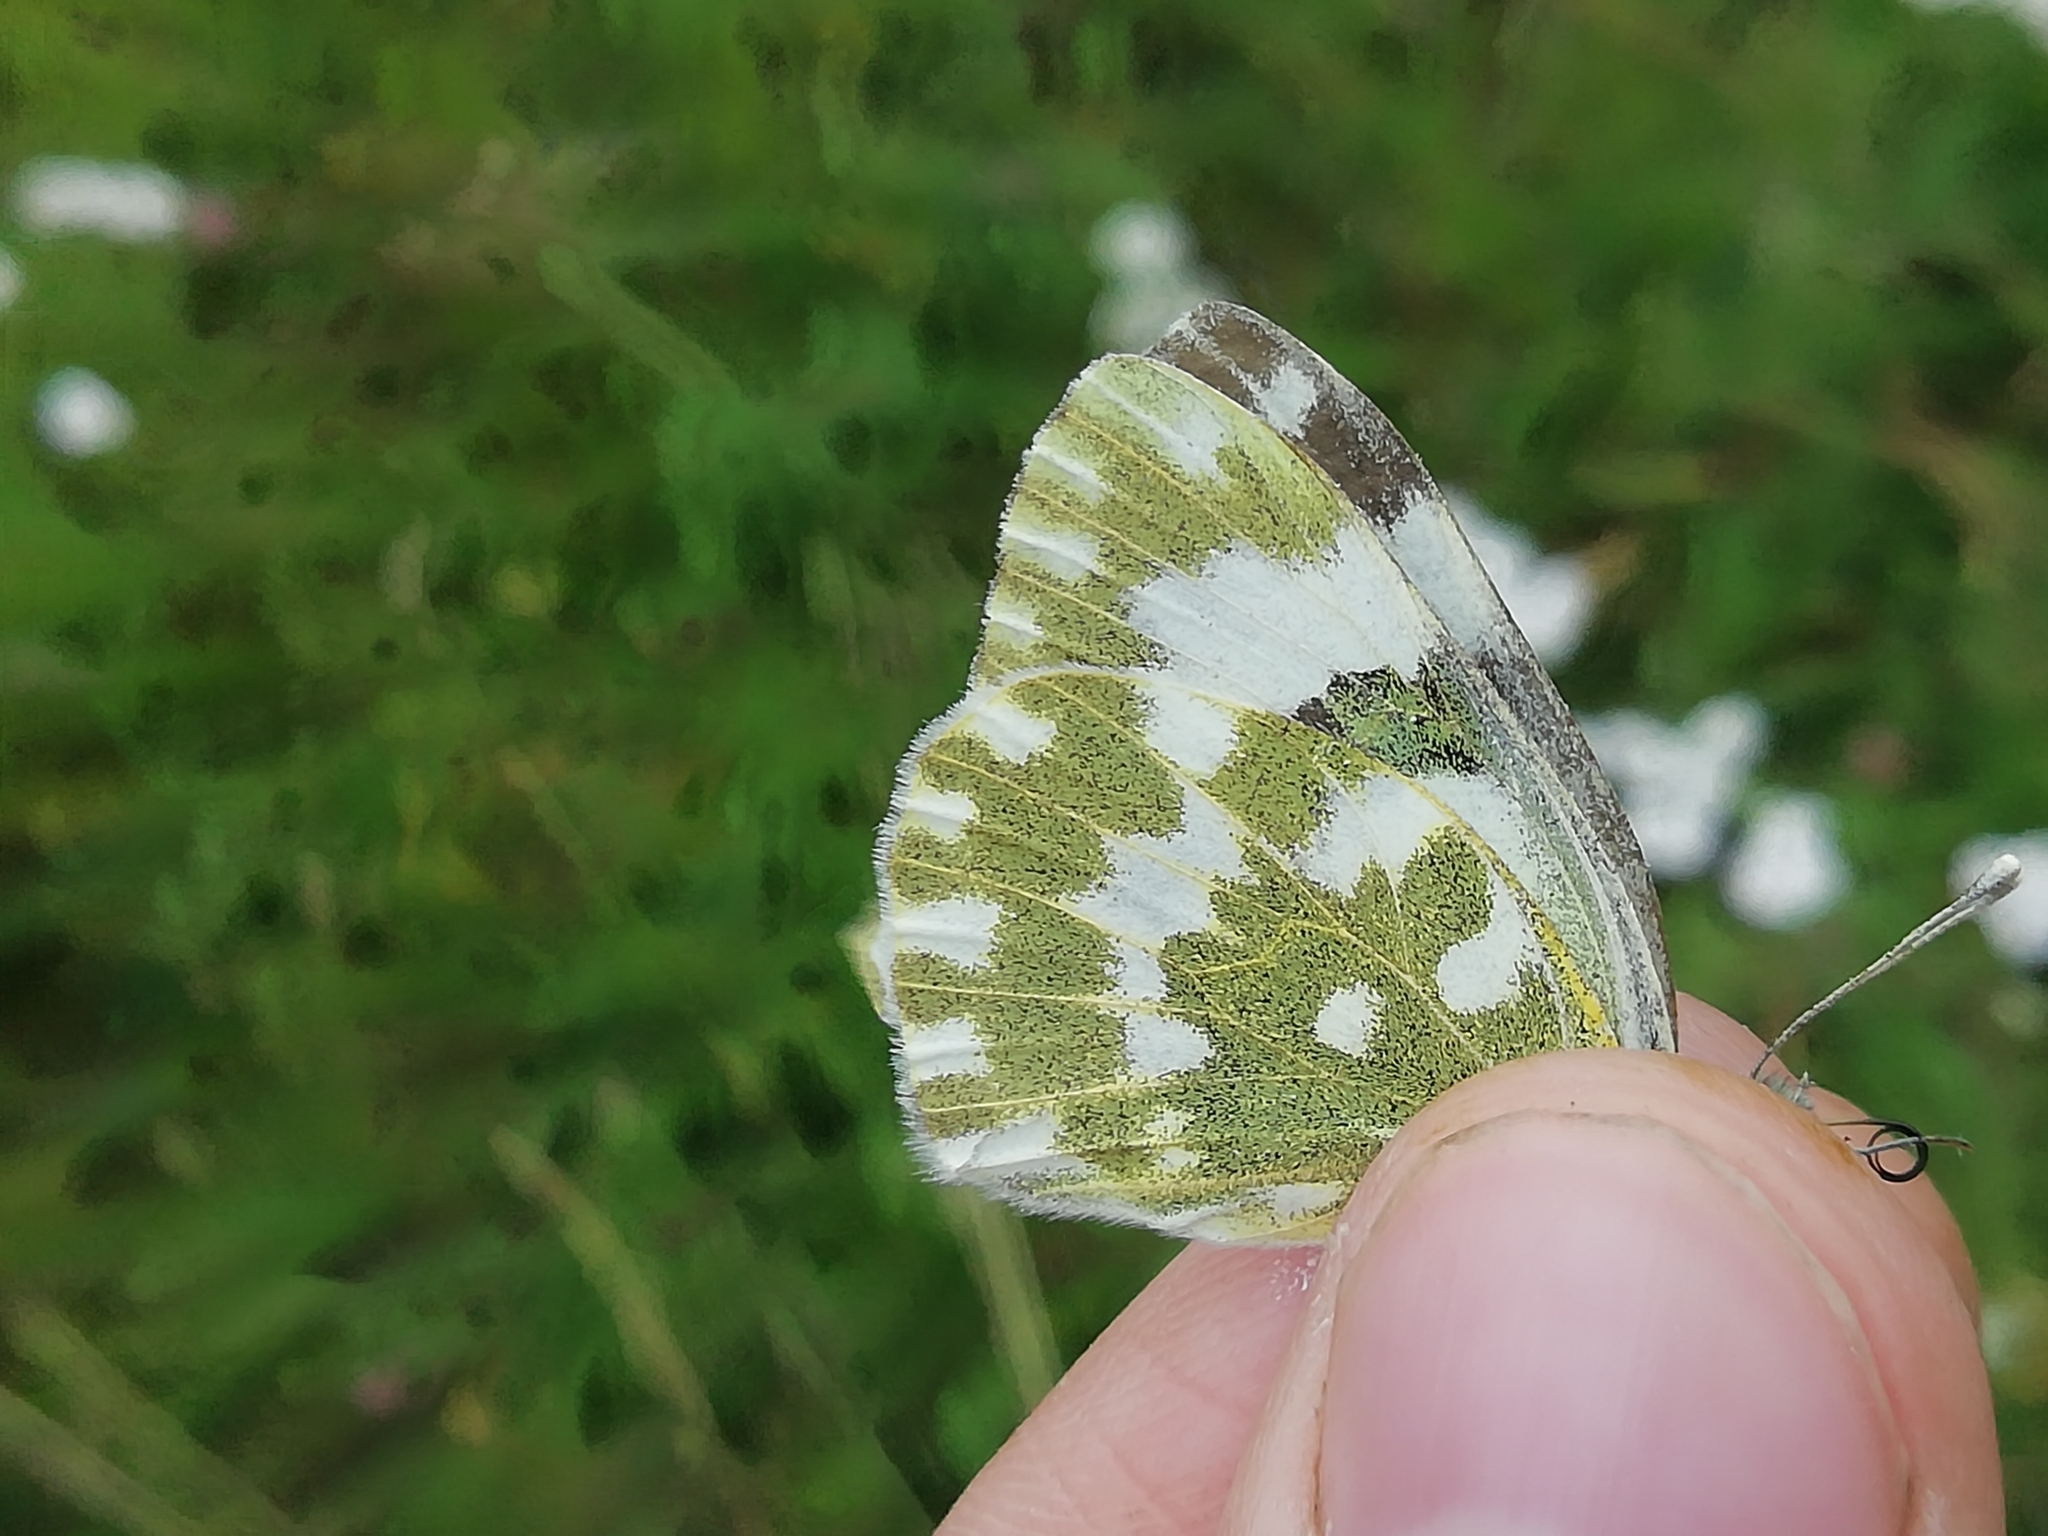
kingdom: Animalia
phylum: Arthropoda
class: Insecta
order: Lepidoptera
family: Pieridae
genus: Pontia
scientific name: Pontia edusa
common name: Eastern bath white
